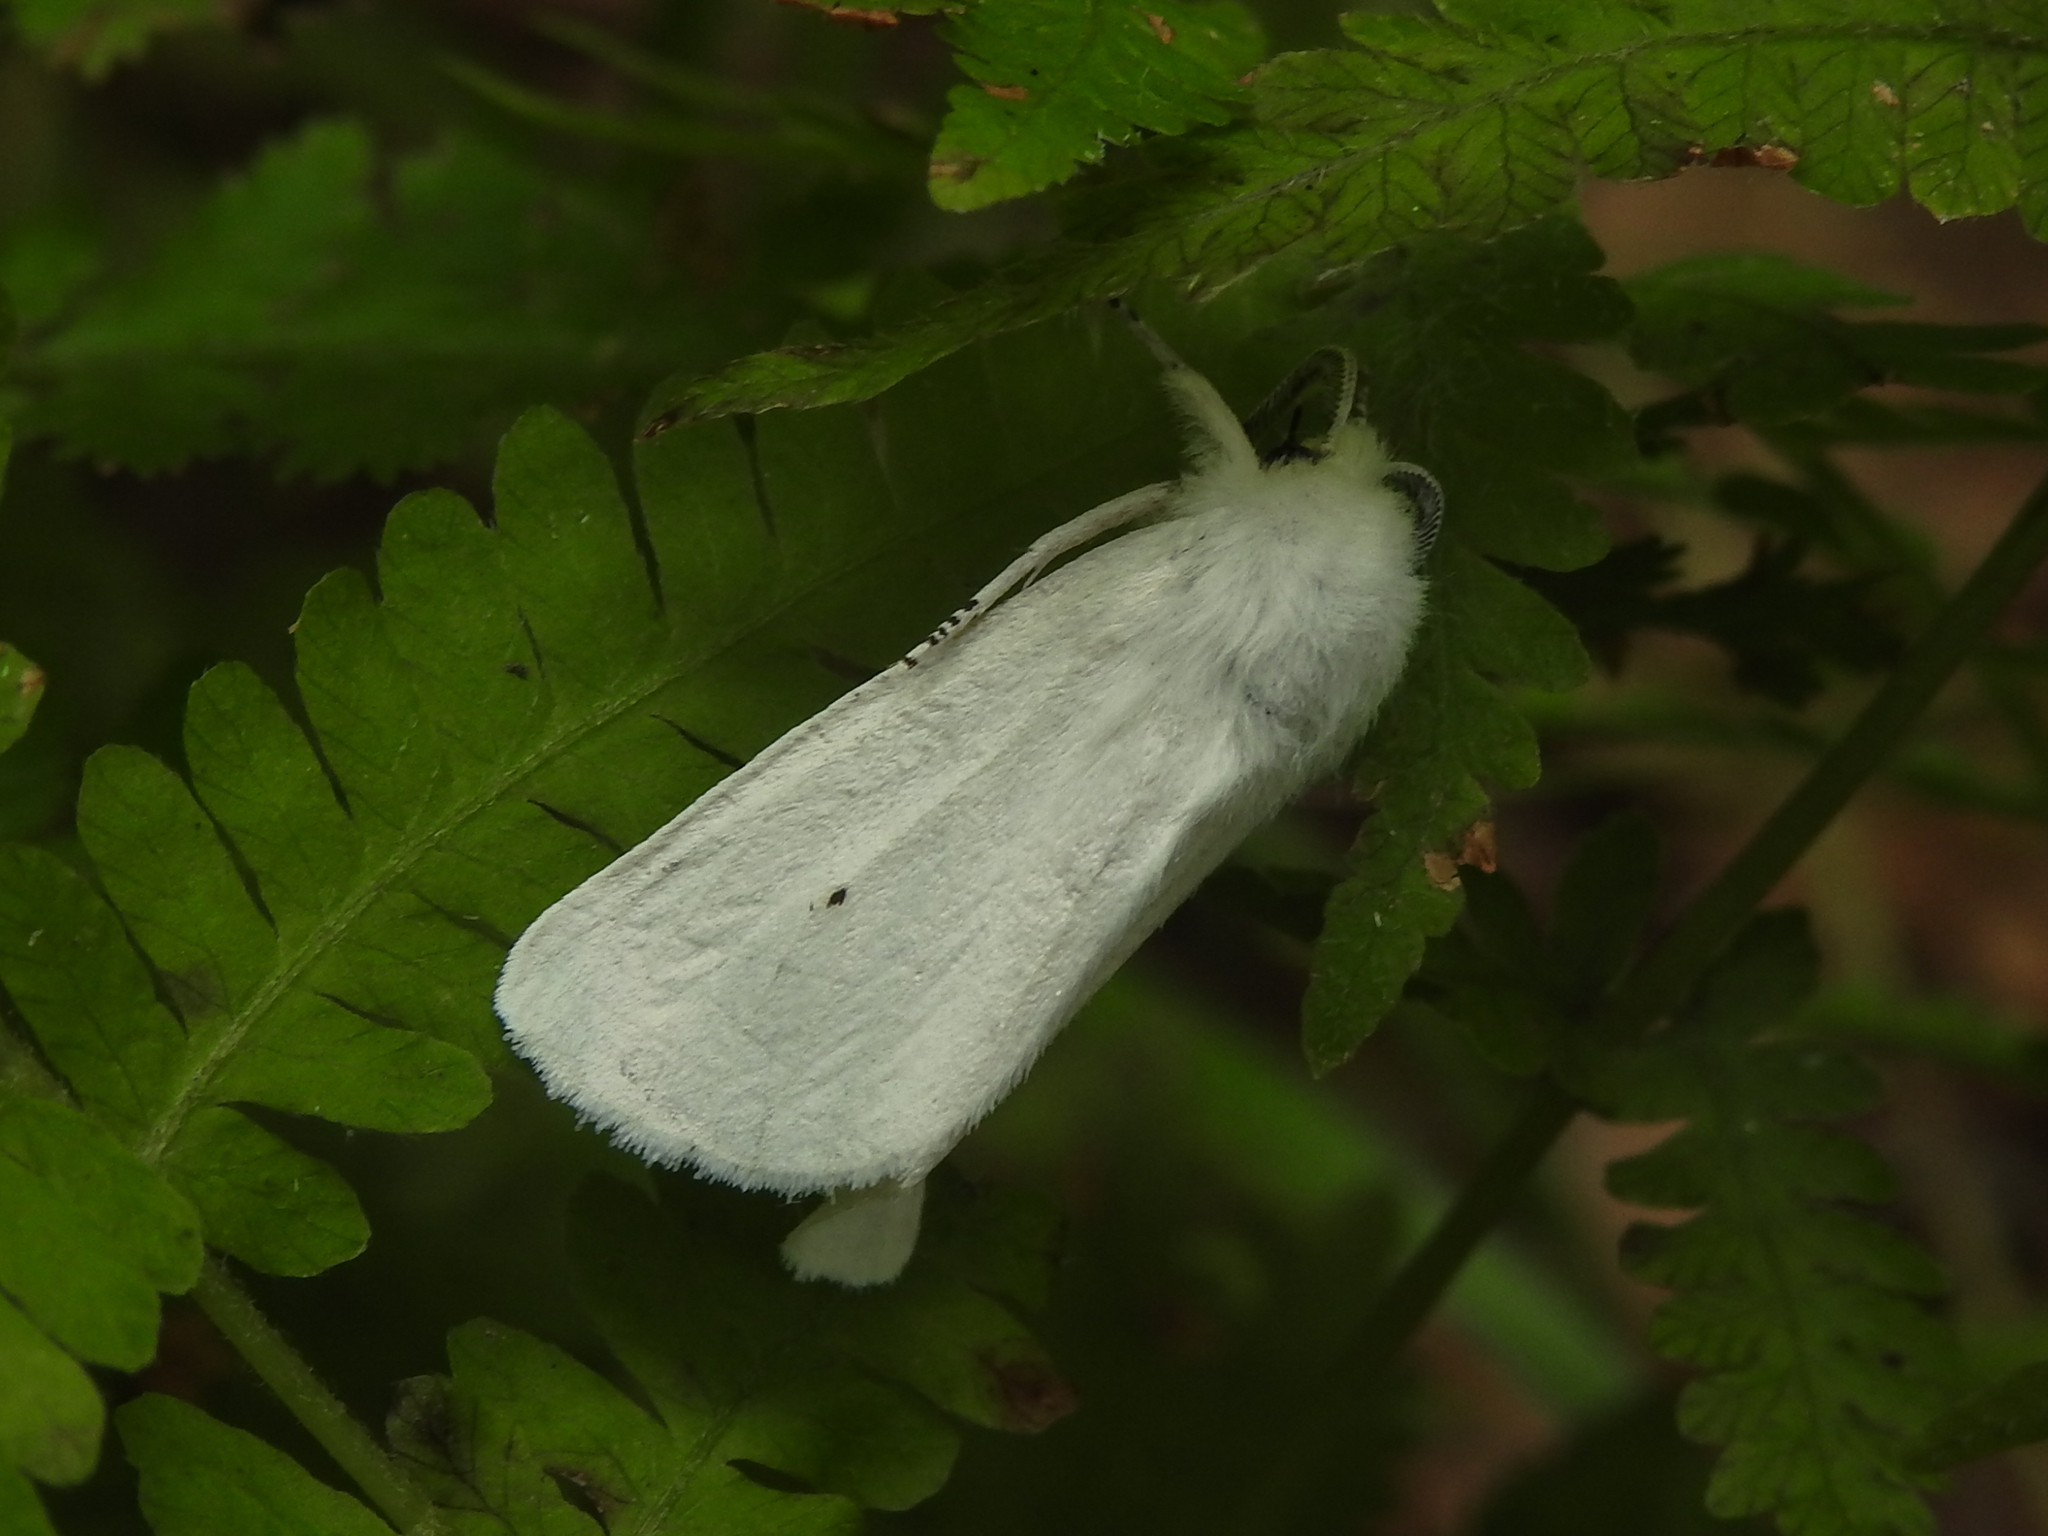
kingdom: Animalia
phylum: Arthropoda
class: Insecta
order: Lepidoptera
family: Erebidae
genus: Spilosoma
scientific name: Spilosoma virginica
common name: Virginia tiger moth
